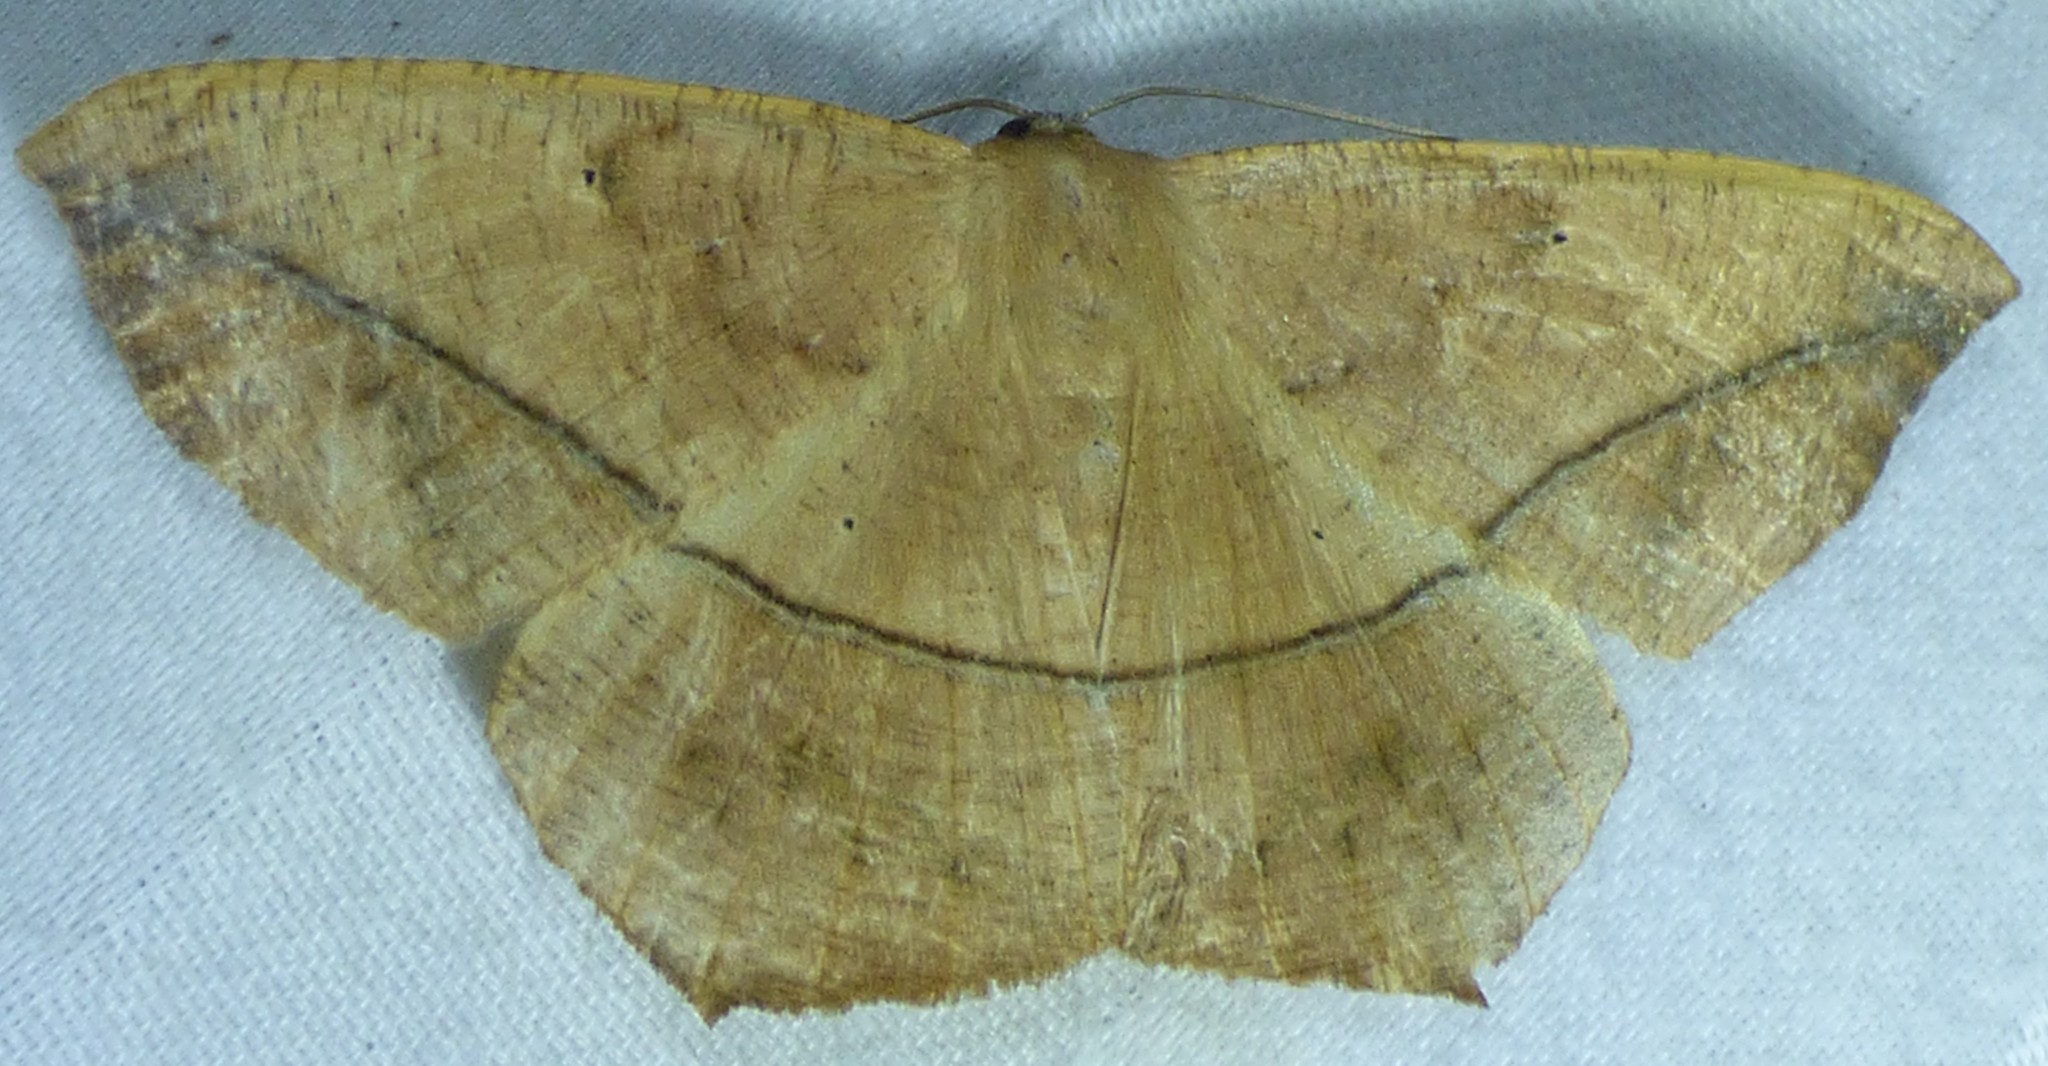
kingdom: Animalia
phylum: Arthropoda
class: Insecta
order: Lepidoptera
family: Geometridae
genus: Prochoerodes
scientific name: Prochoerodes lineola
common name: Large maple spanworm
